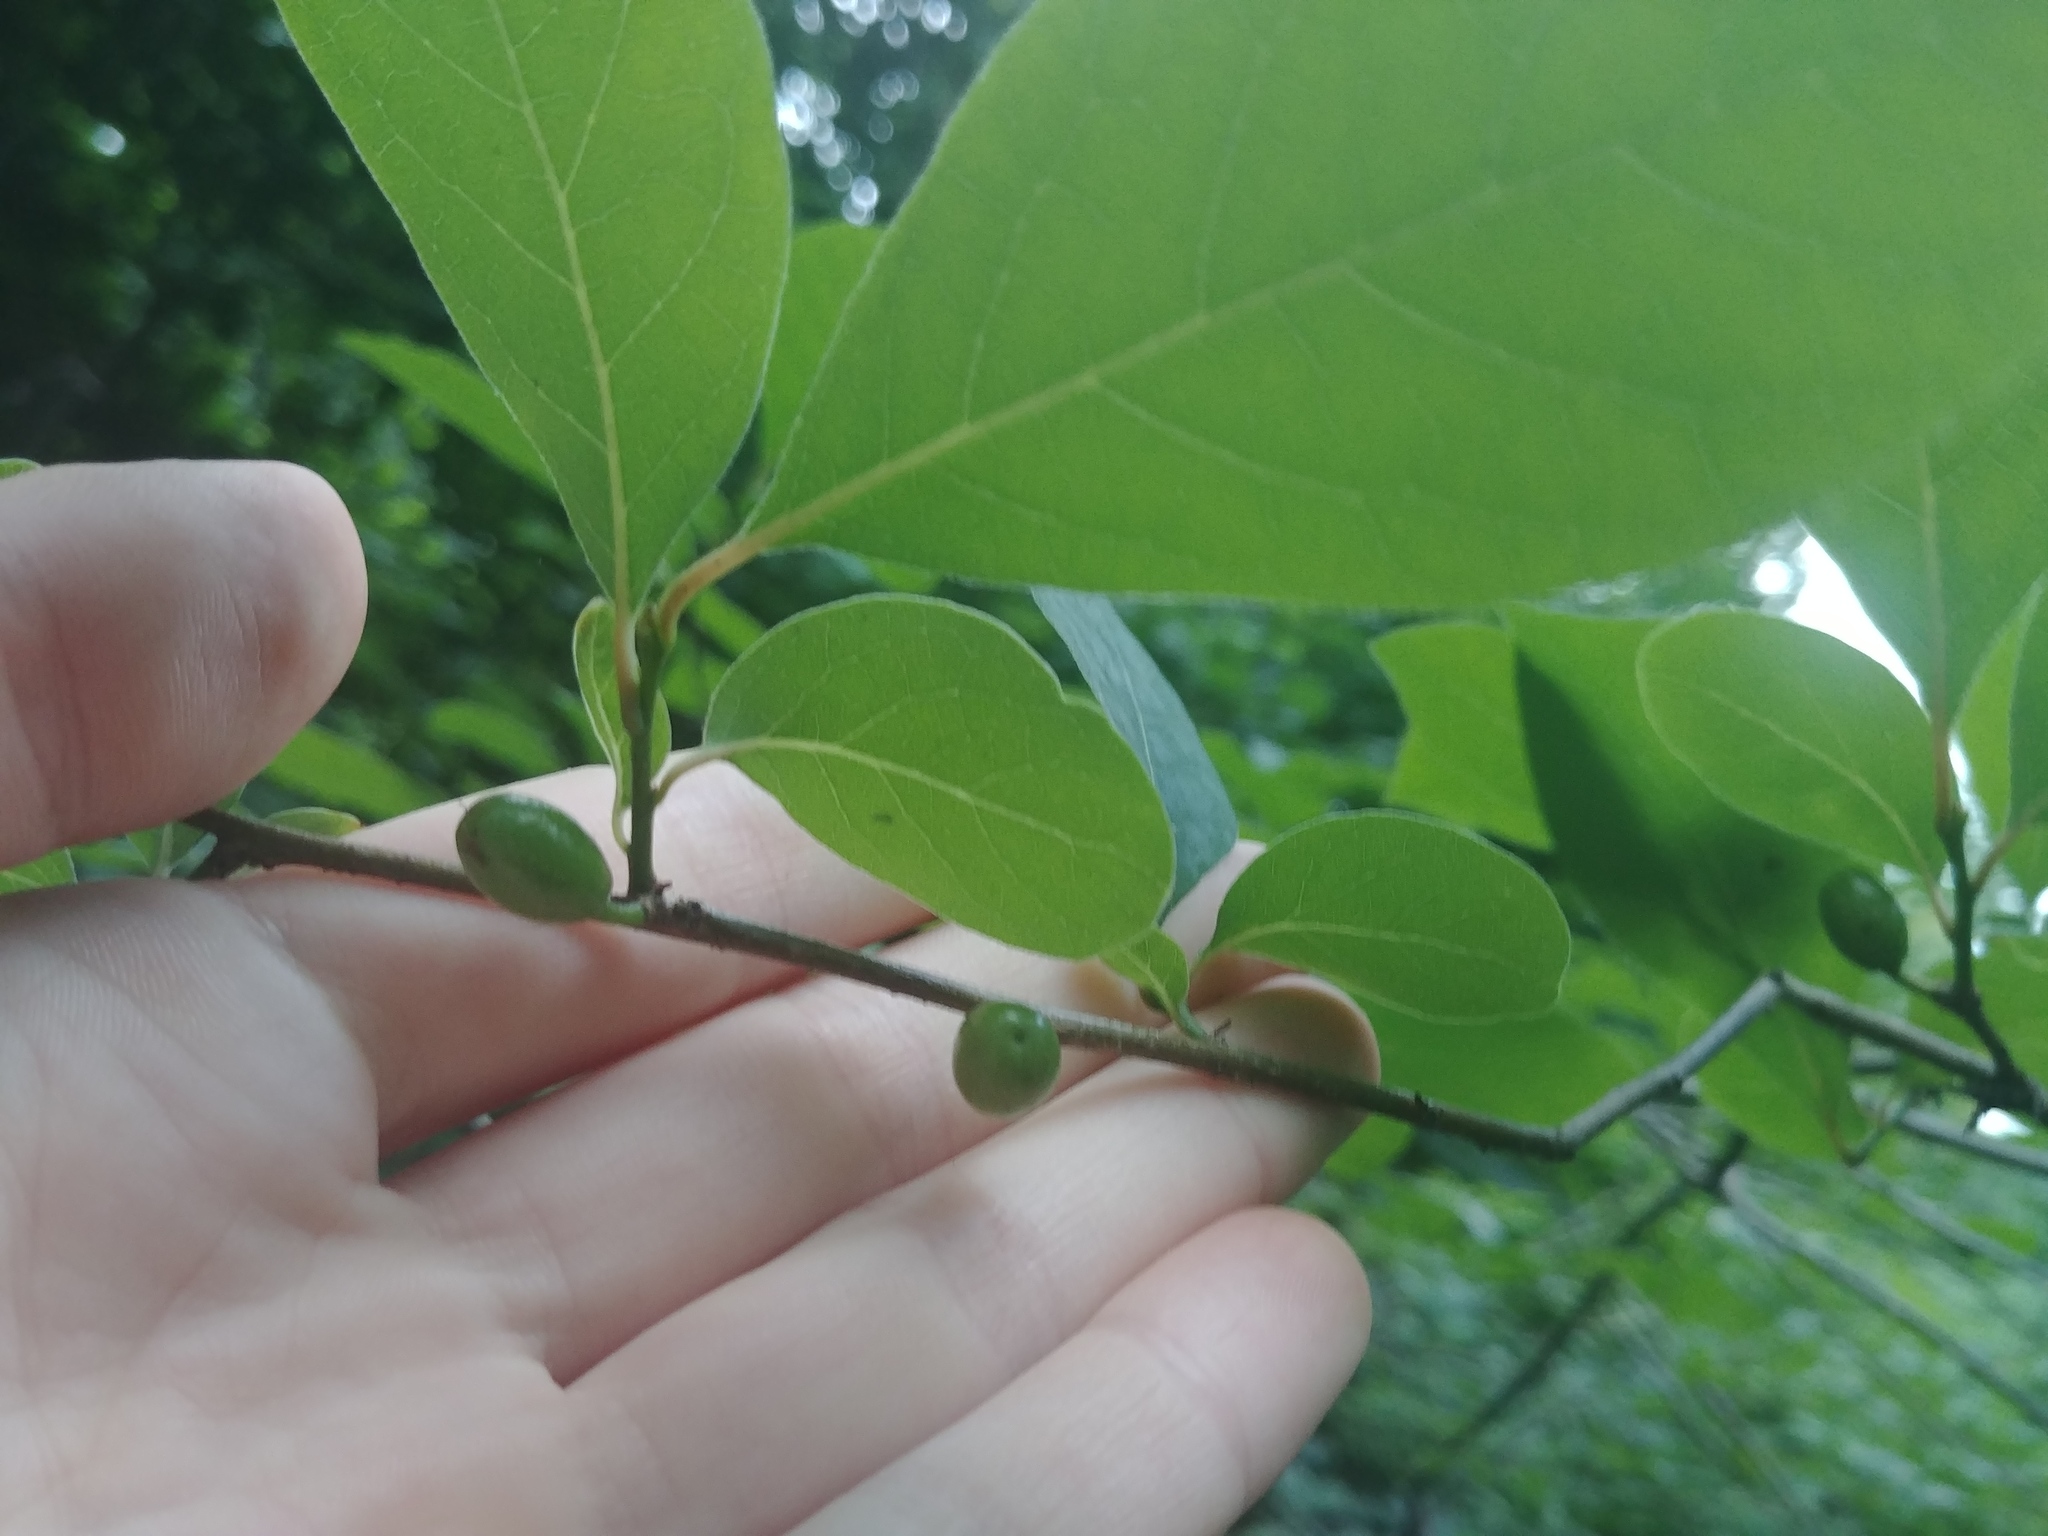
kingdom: Plantae
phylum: Tracheophyta
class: Magnoliopsida
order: Laurales
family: Lauraceae
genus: Lindera
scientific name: Lindera benzoin
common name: Spicebush
